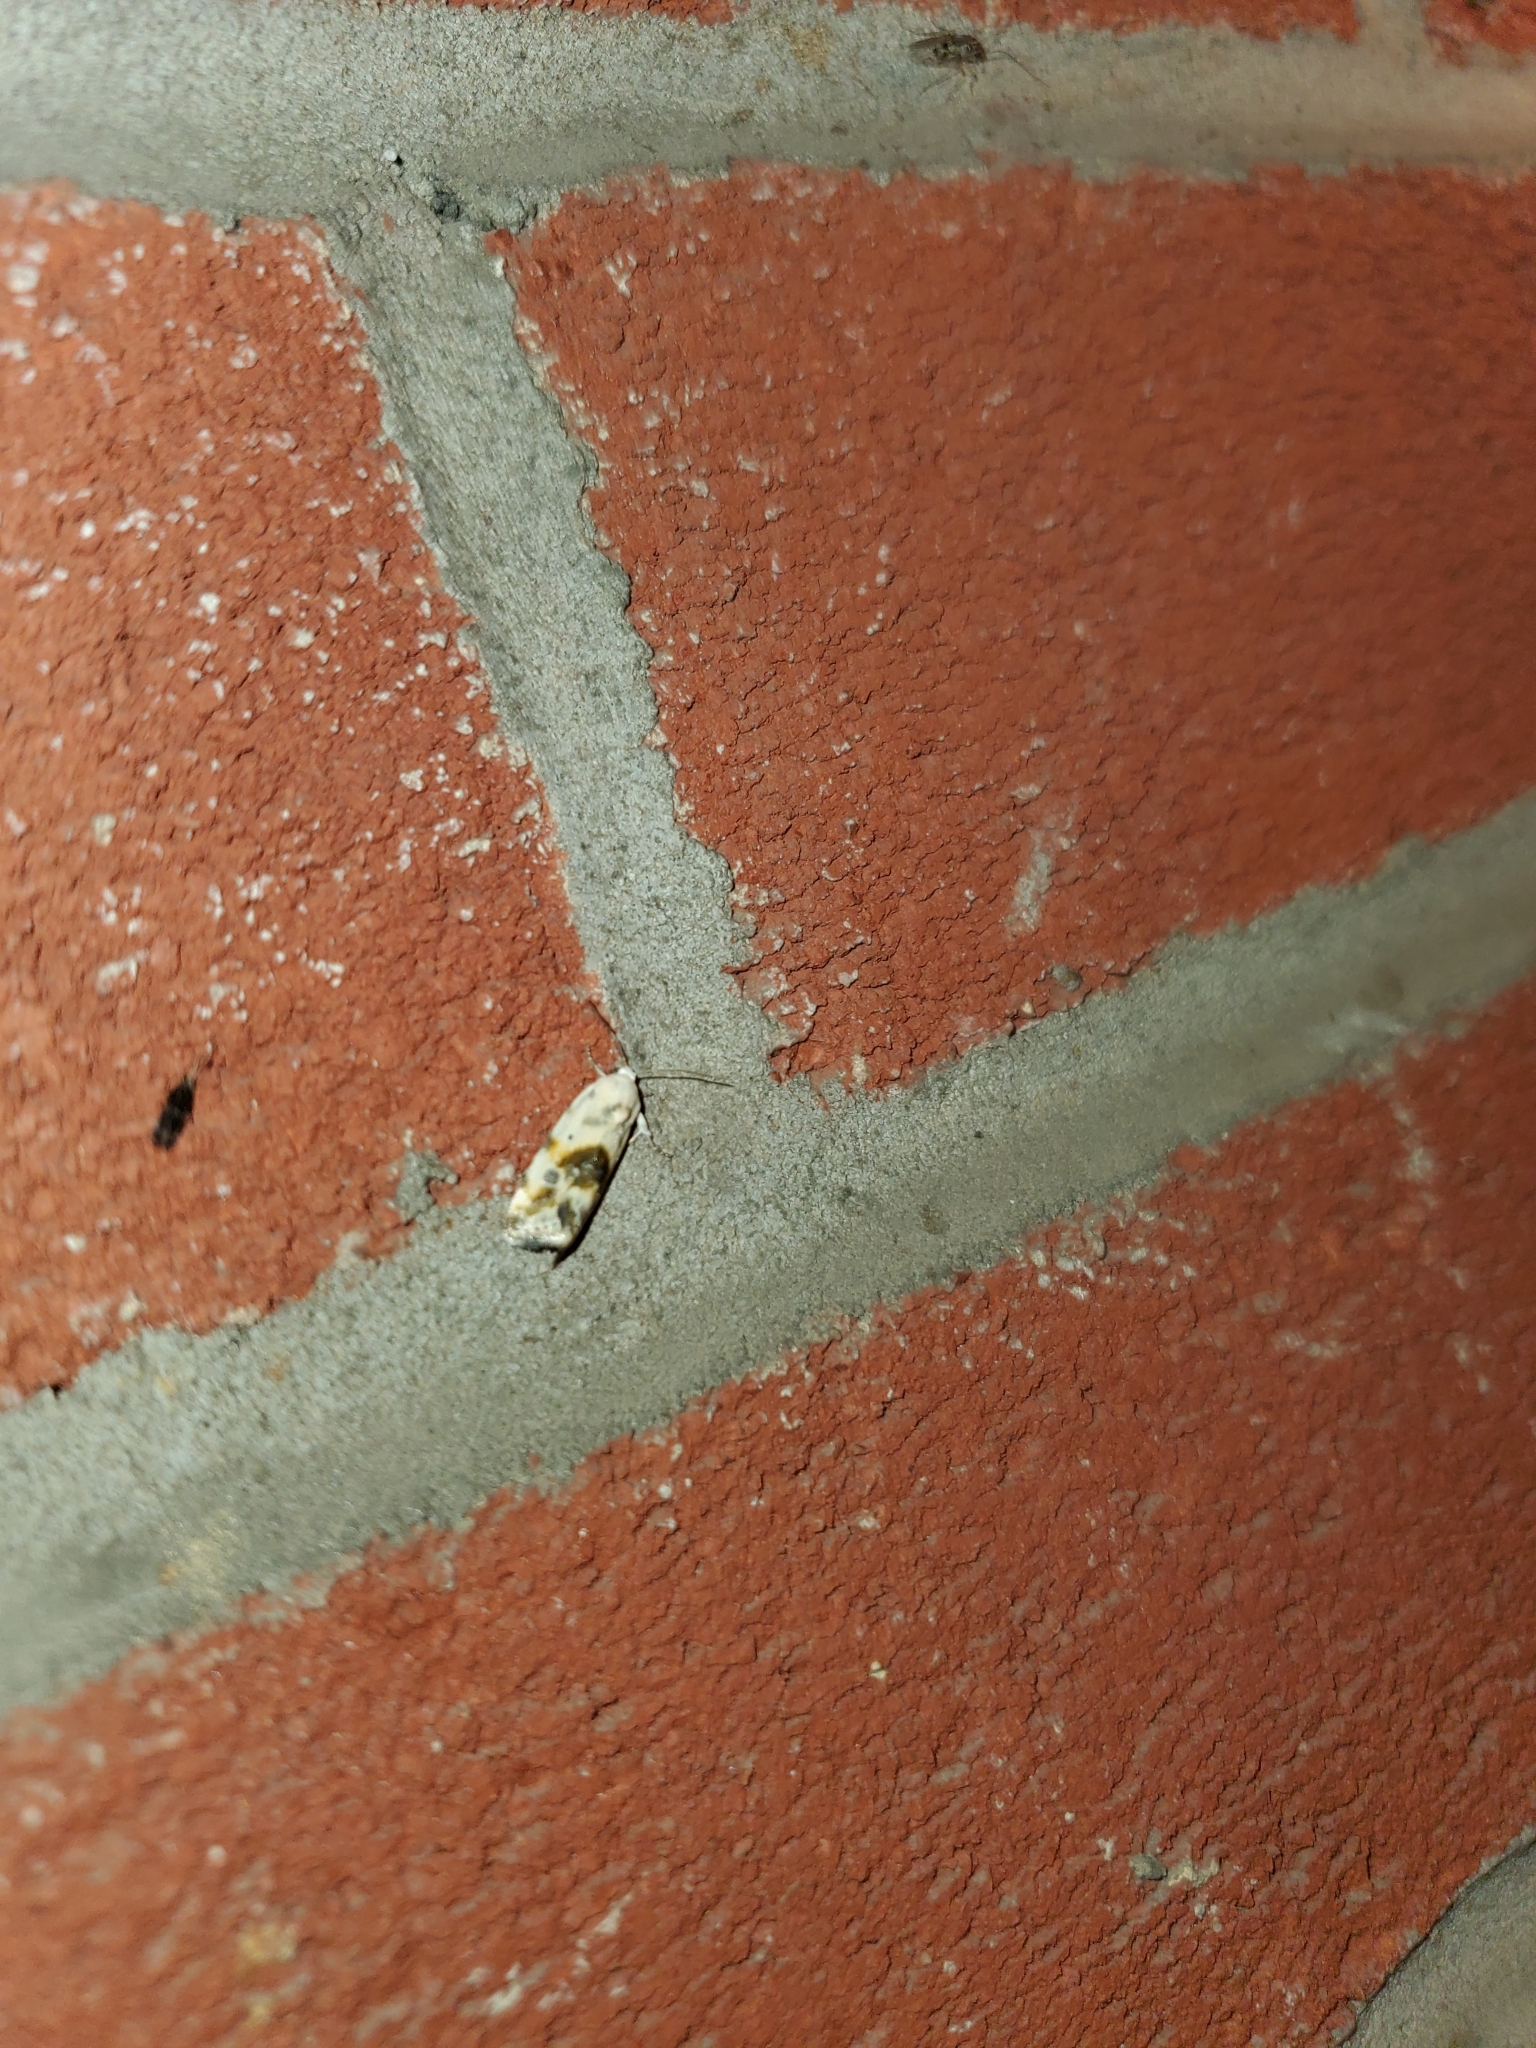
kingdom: Animalia
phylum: Arthropoda
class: Insecta
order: Lepidoptera
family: Noctuidae
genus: Acontia
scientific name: Acontia candefacta
